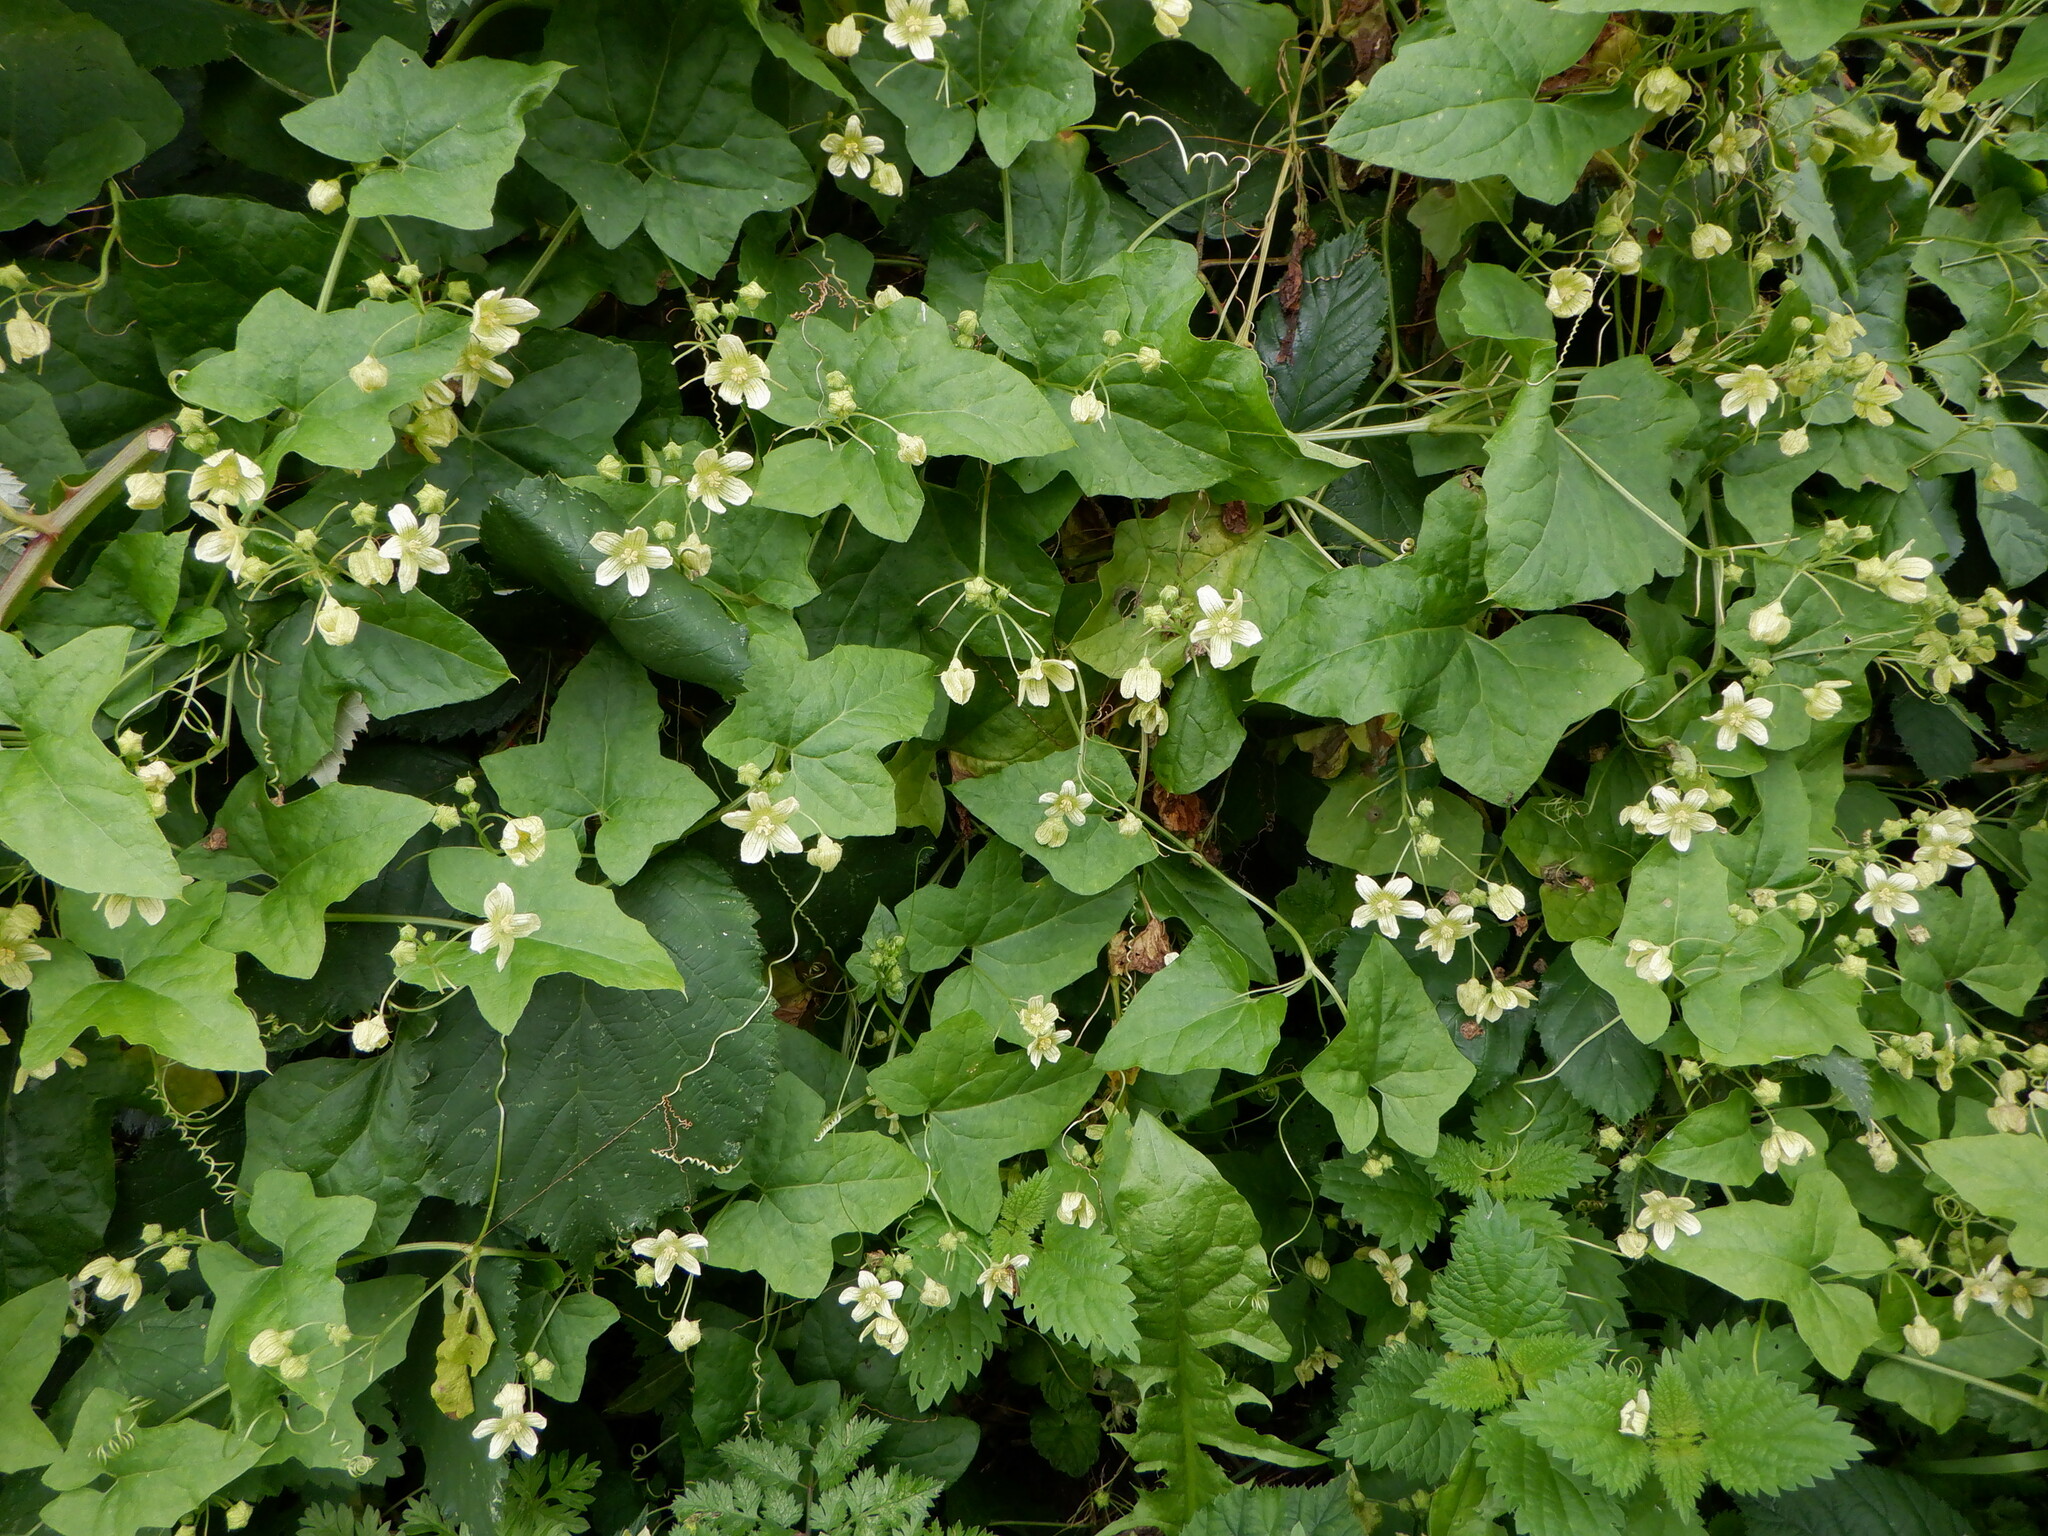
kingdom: Plantae
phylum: Tracheophyta
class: Magnoliopsida
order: Cucurbitales
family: Cucurbitaceae
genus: Bryonia
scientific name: Bryonia cretica
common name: Cretan bryony
